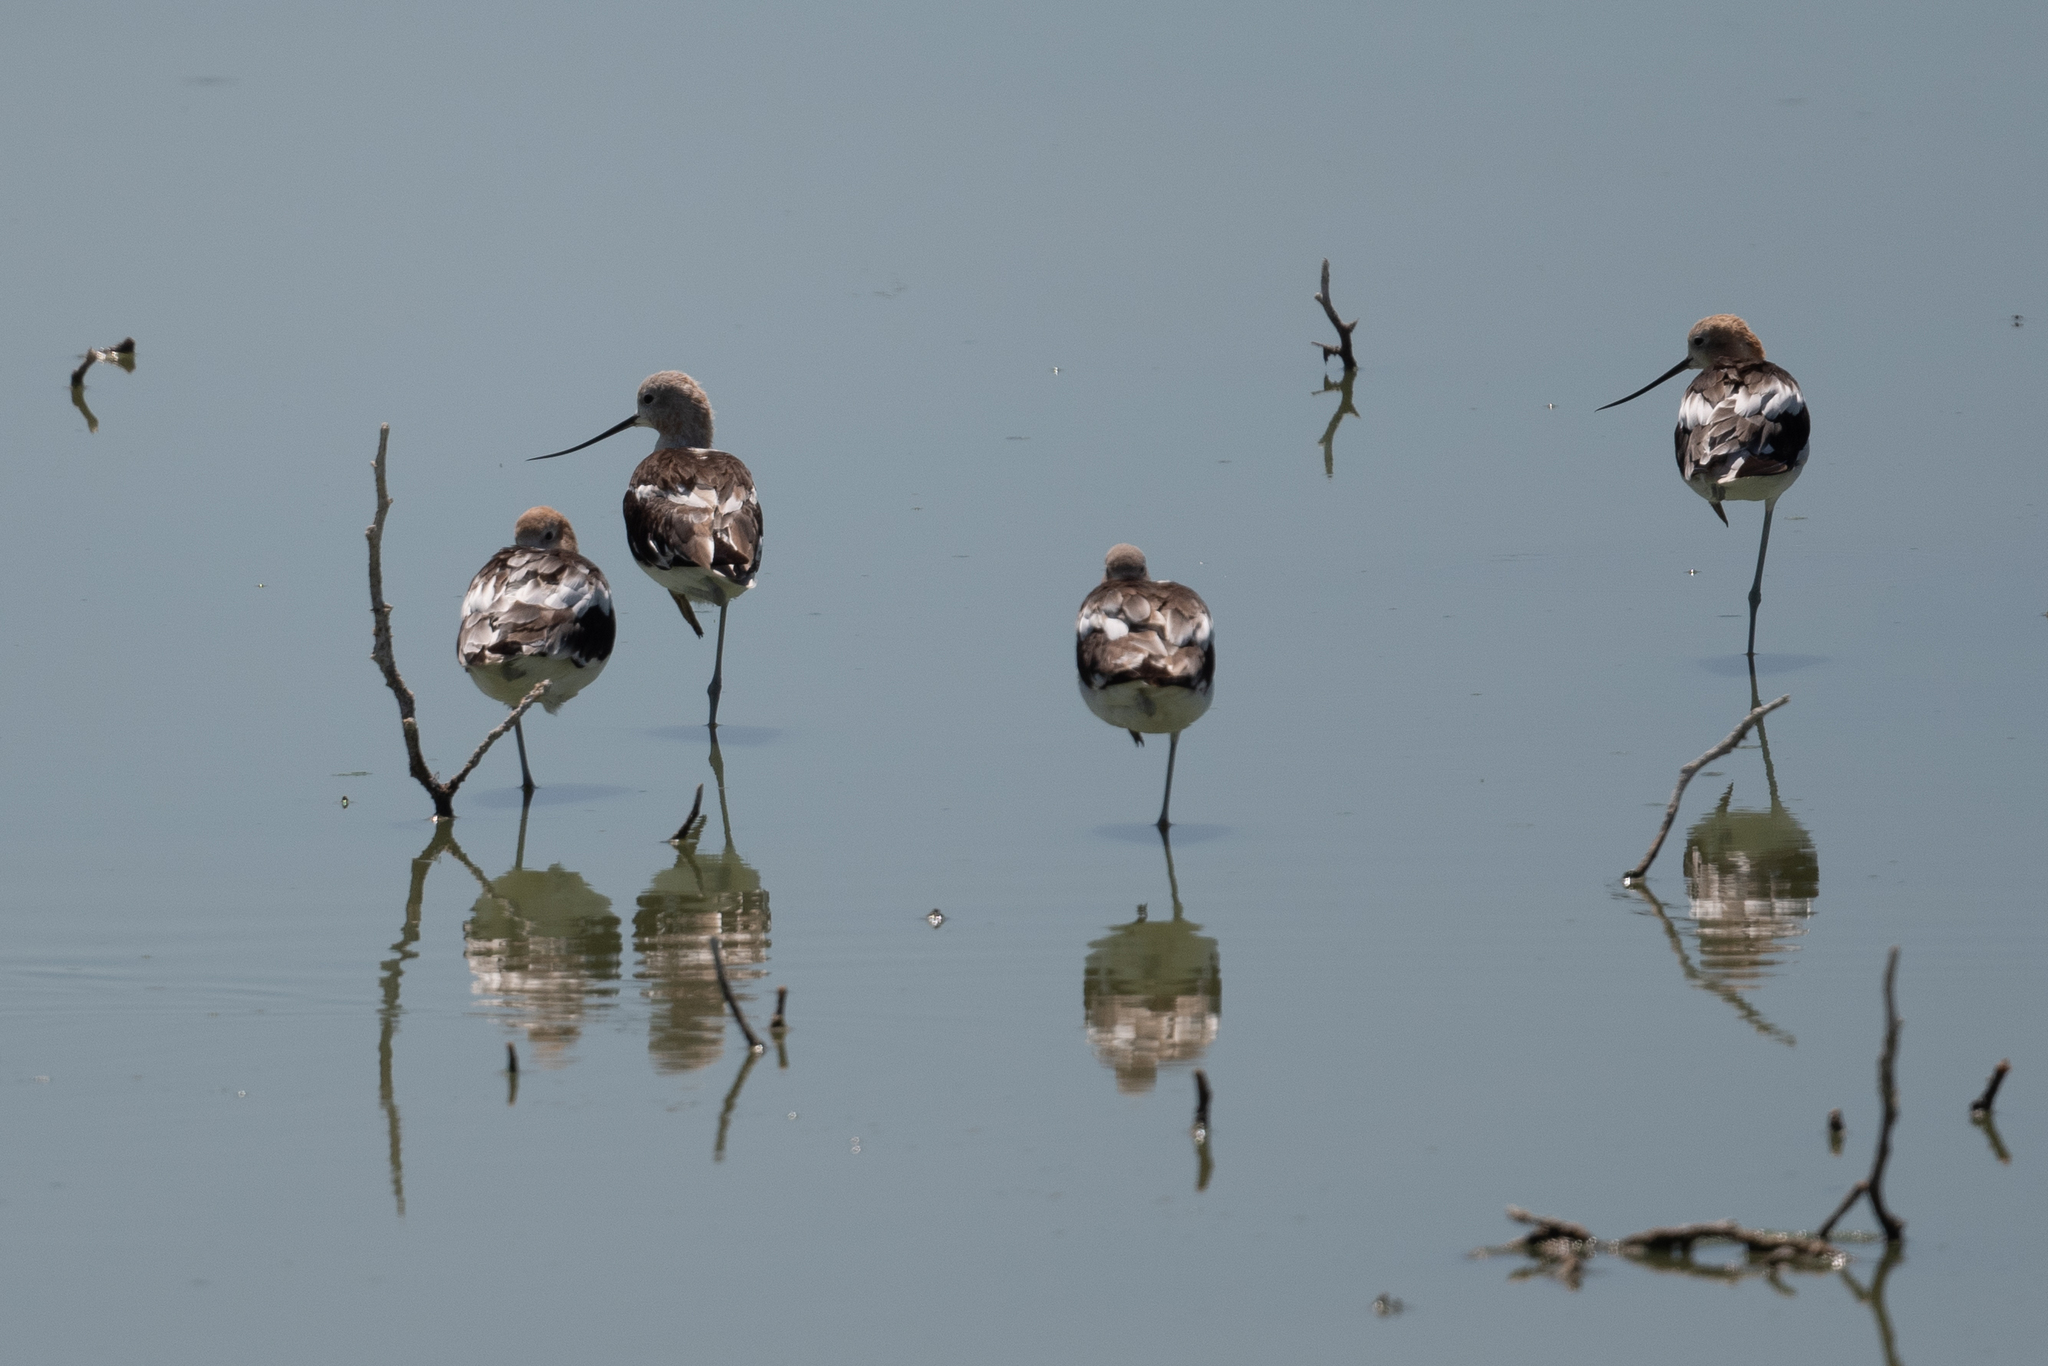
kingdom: Animalia
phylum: Chordata
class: Aves
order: Charadriiformes
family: Recurvirostridae
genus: Recurvirostra
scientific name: Recurvirostra americana
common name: American avocet
